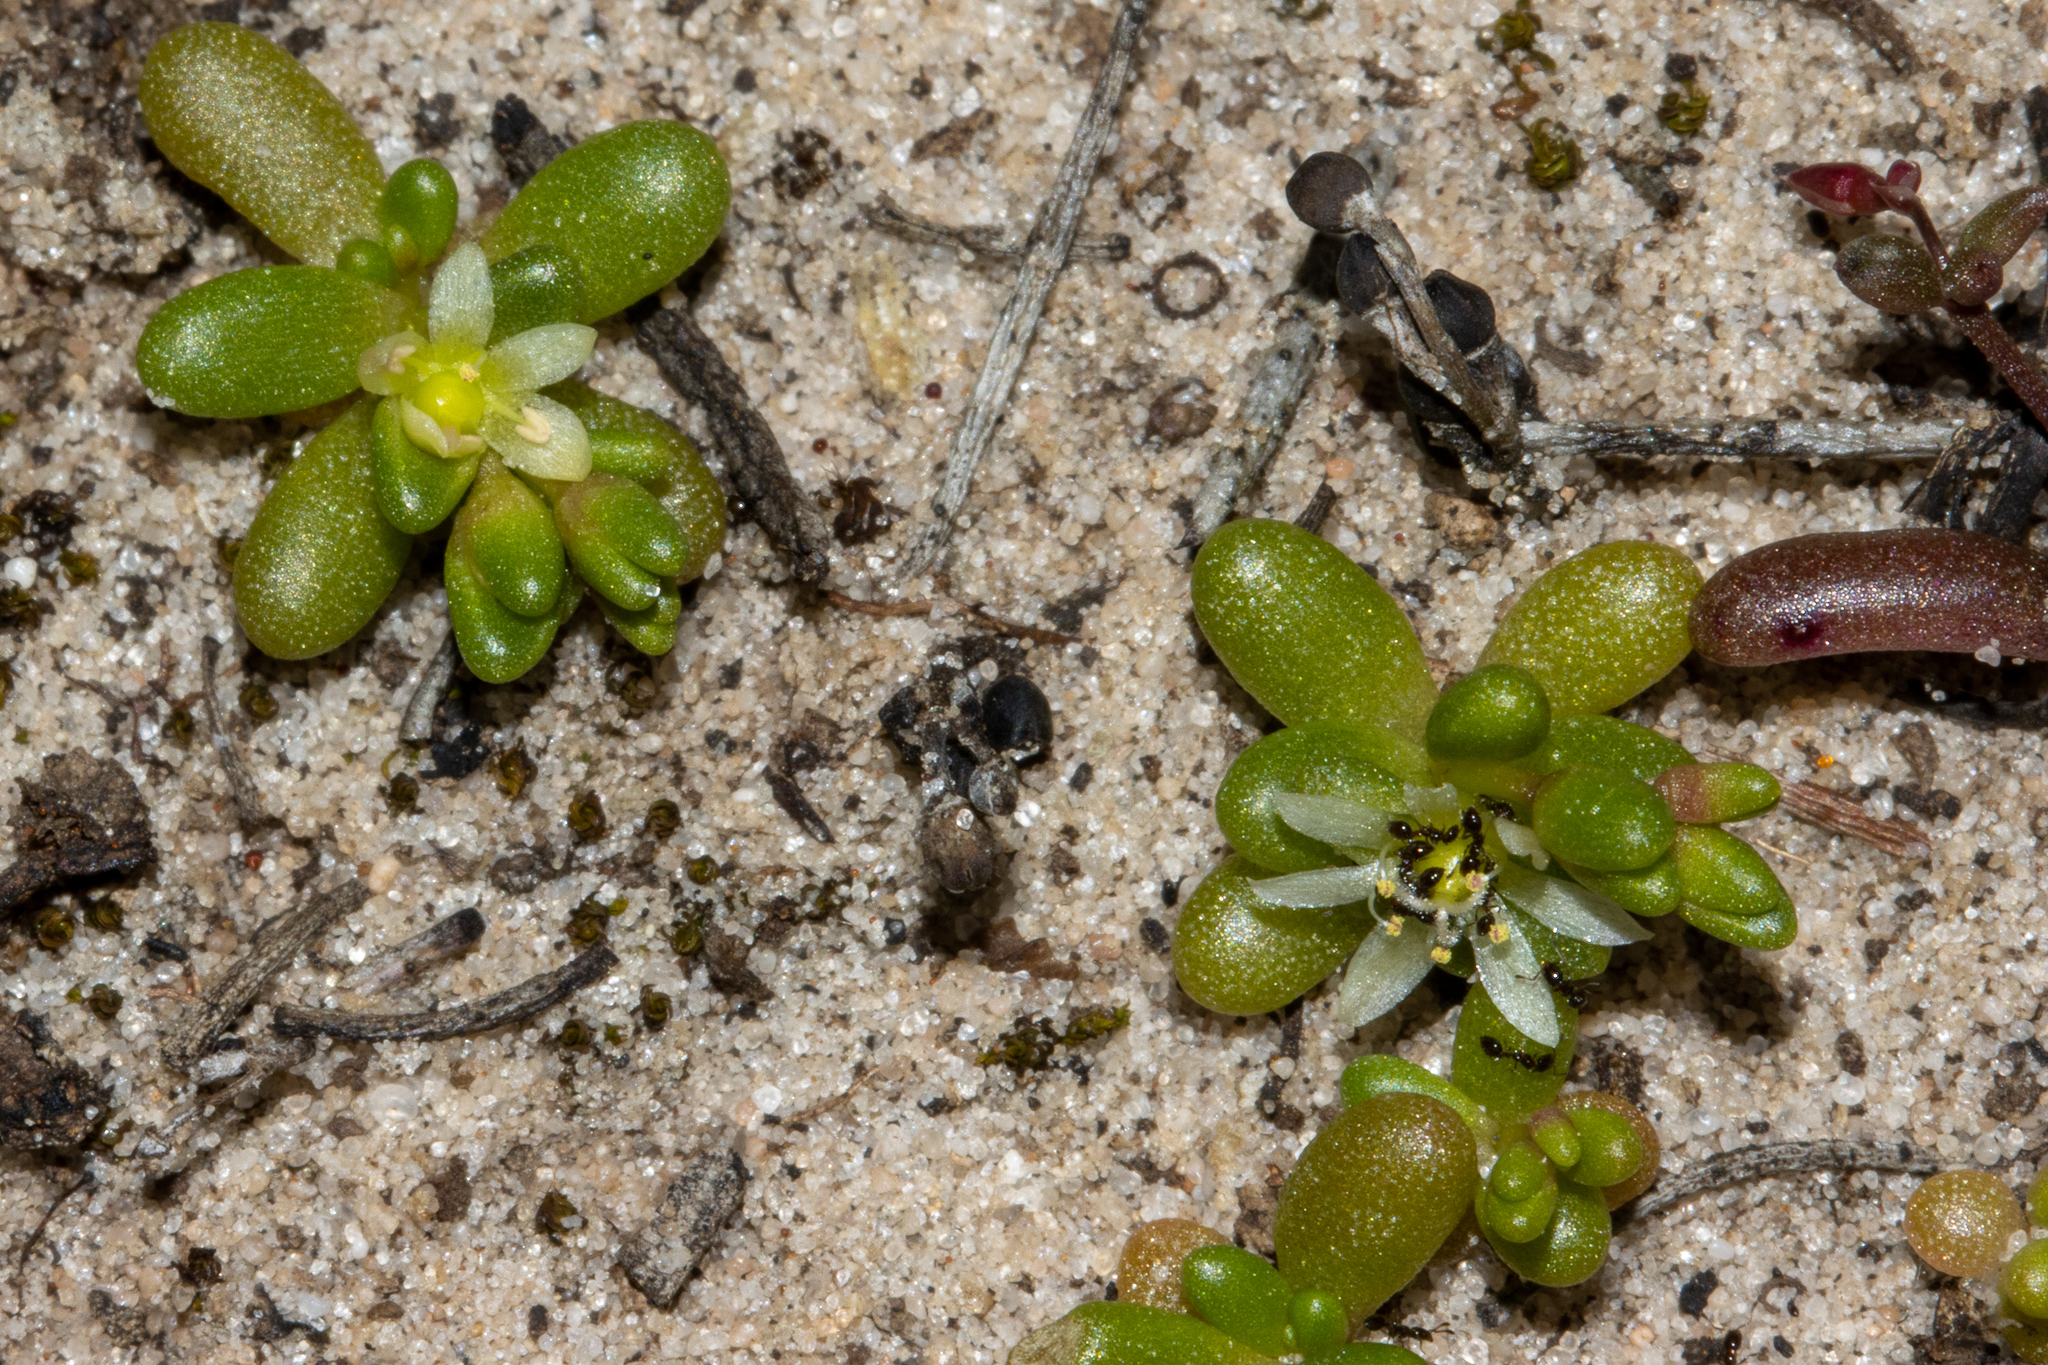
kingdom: Plantae
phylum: Tracheophyta
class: Magnoliopsida
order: Caryophyllales
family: Montiaceae
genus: Rumicastrum
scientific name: Rumicastrum granuliferum
